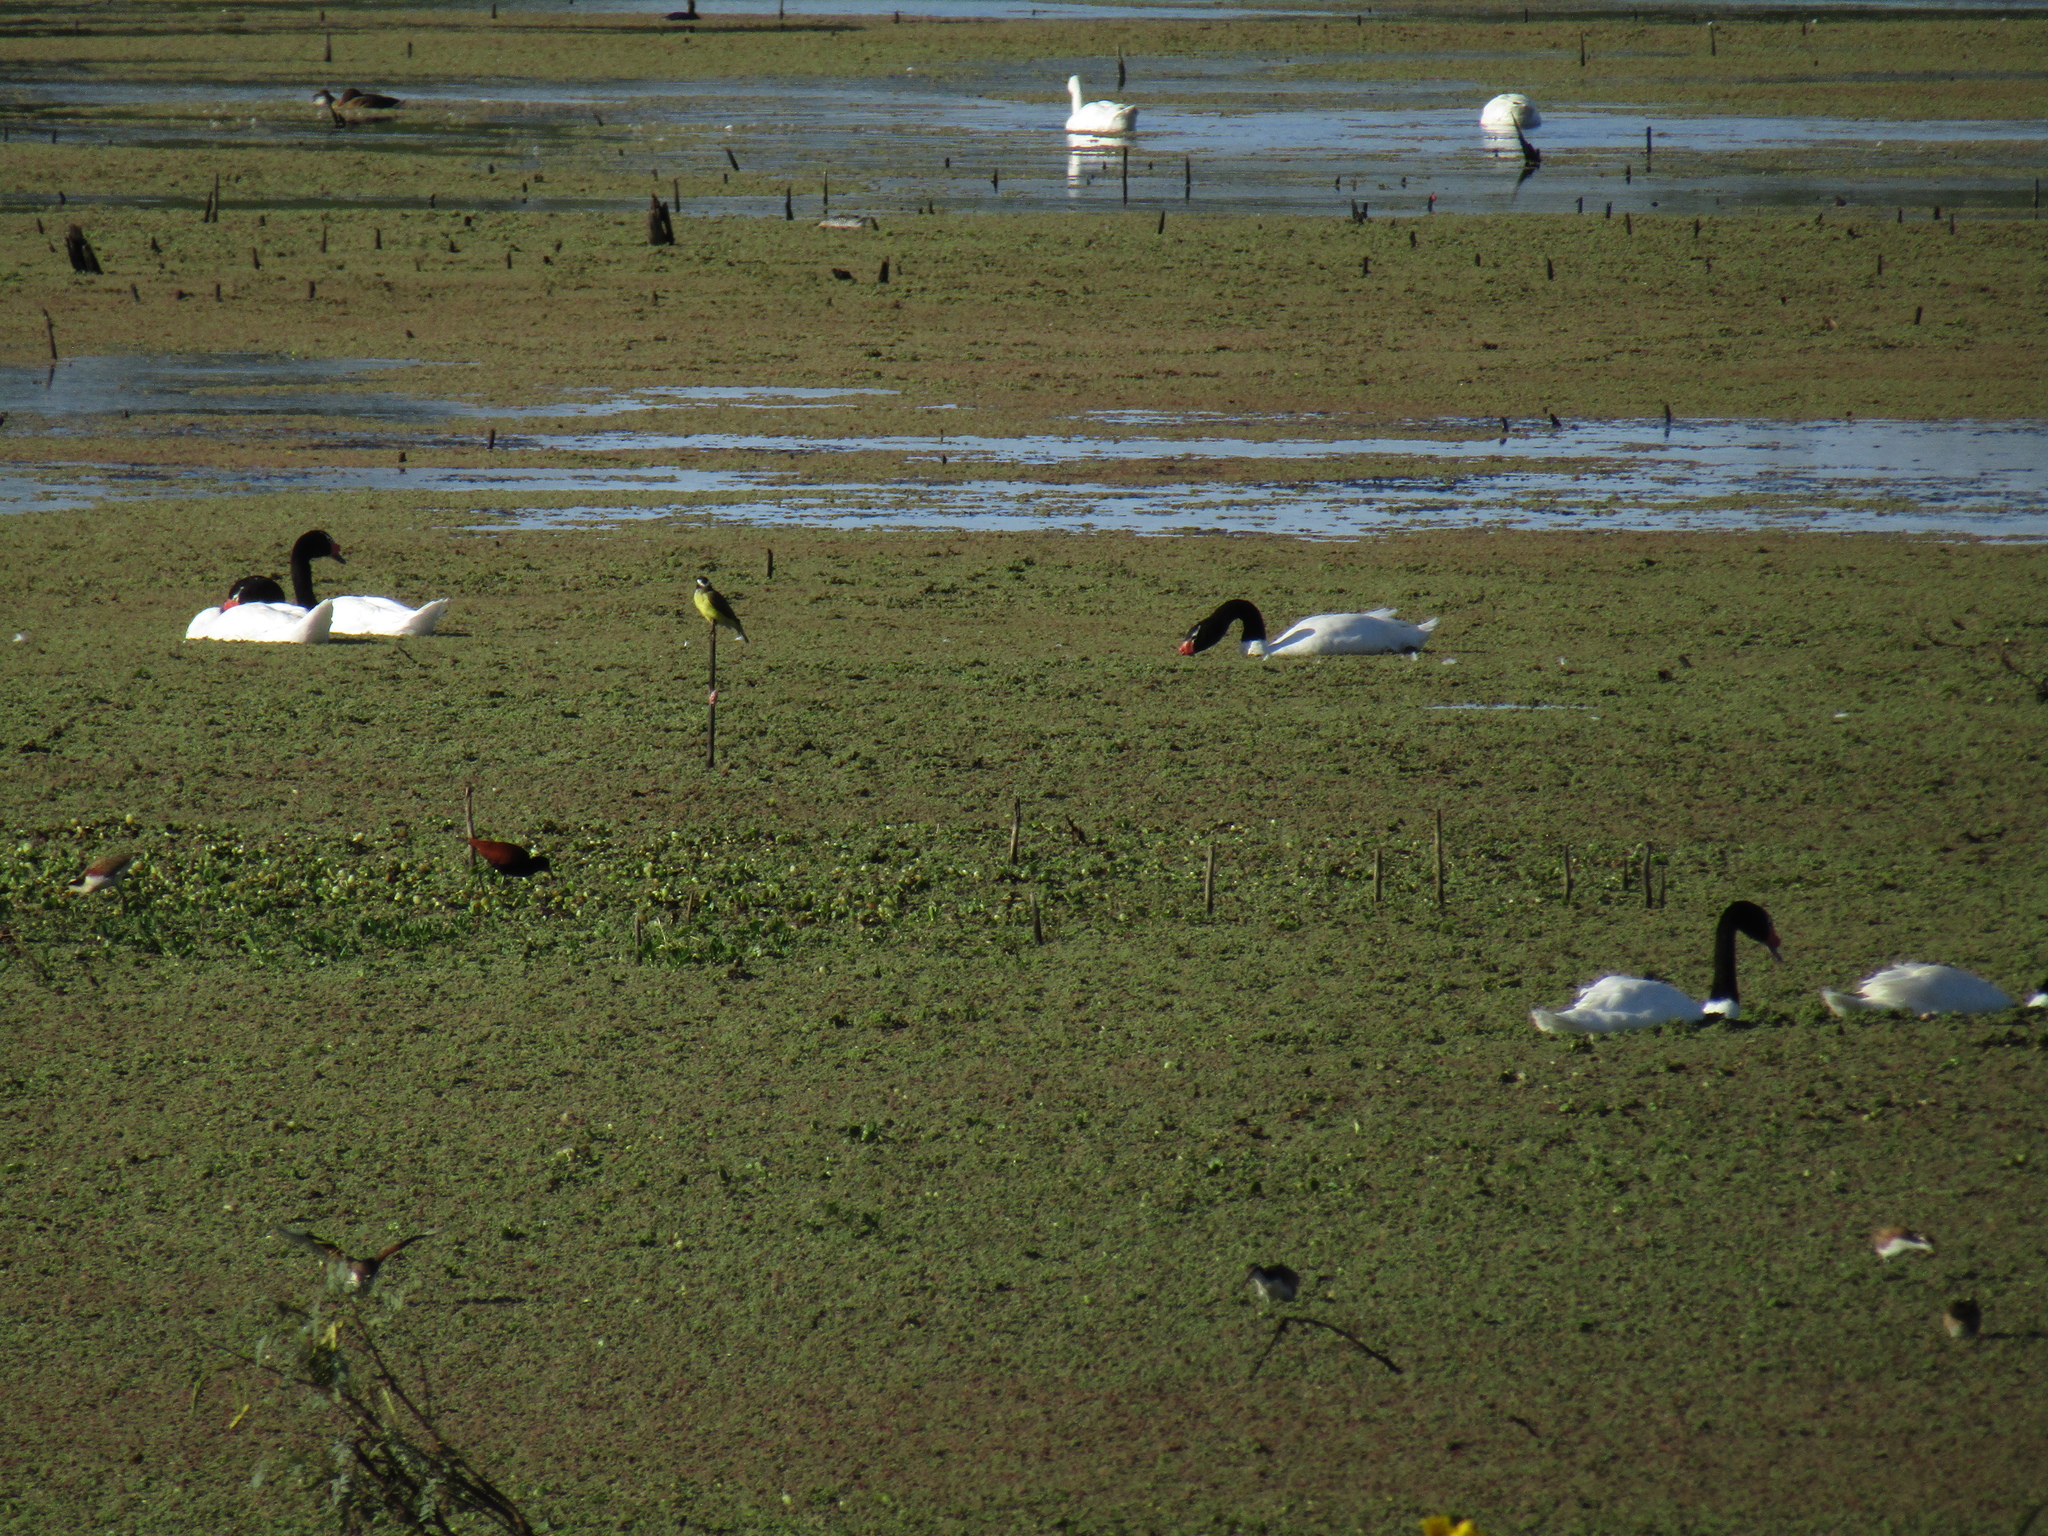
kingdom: Animalia
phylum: Chordata
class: Aves
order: Anseriformes
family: Anatidae
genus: Cygnus
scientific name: Cygnus melancoryphus
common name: Black-necked swan
